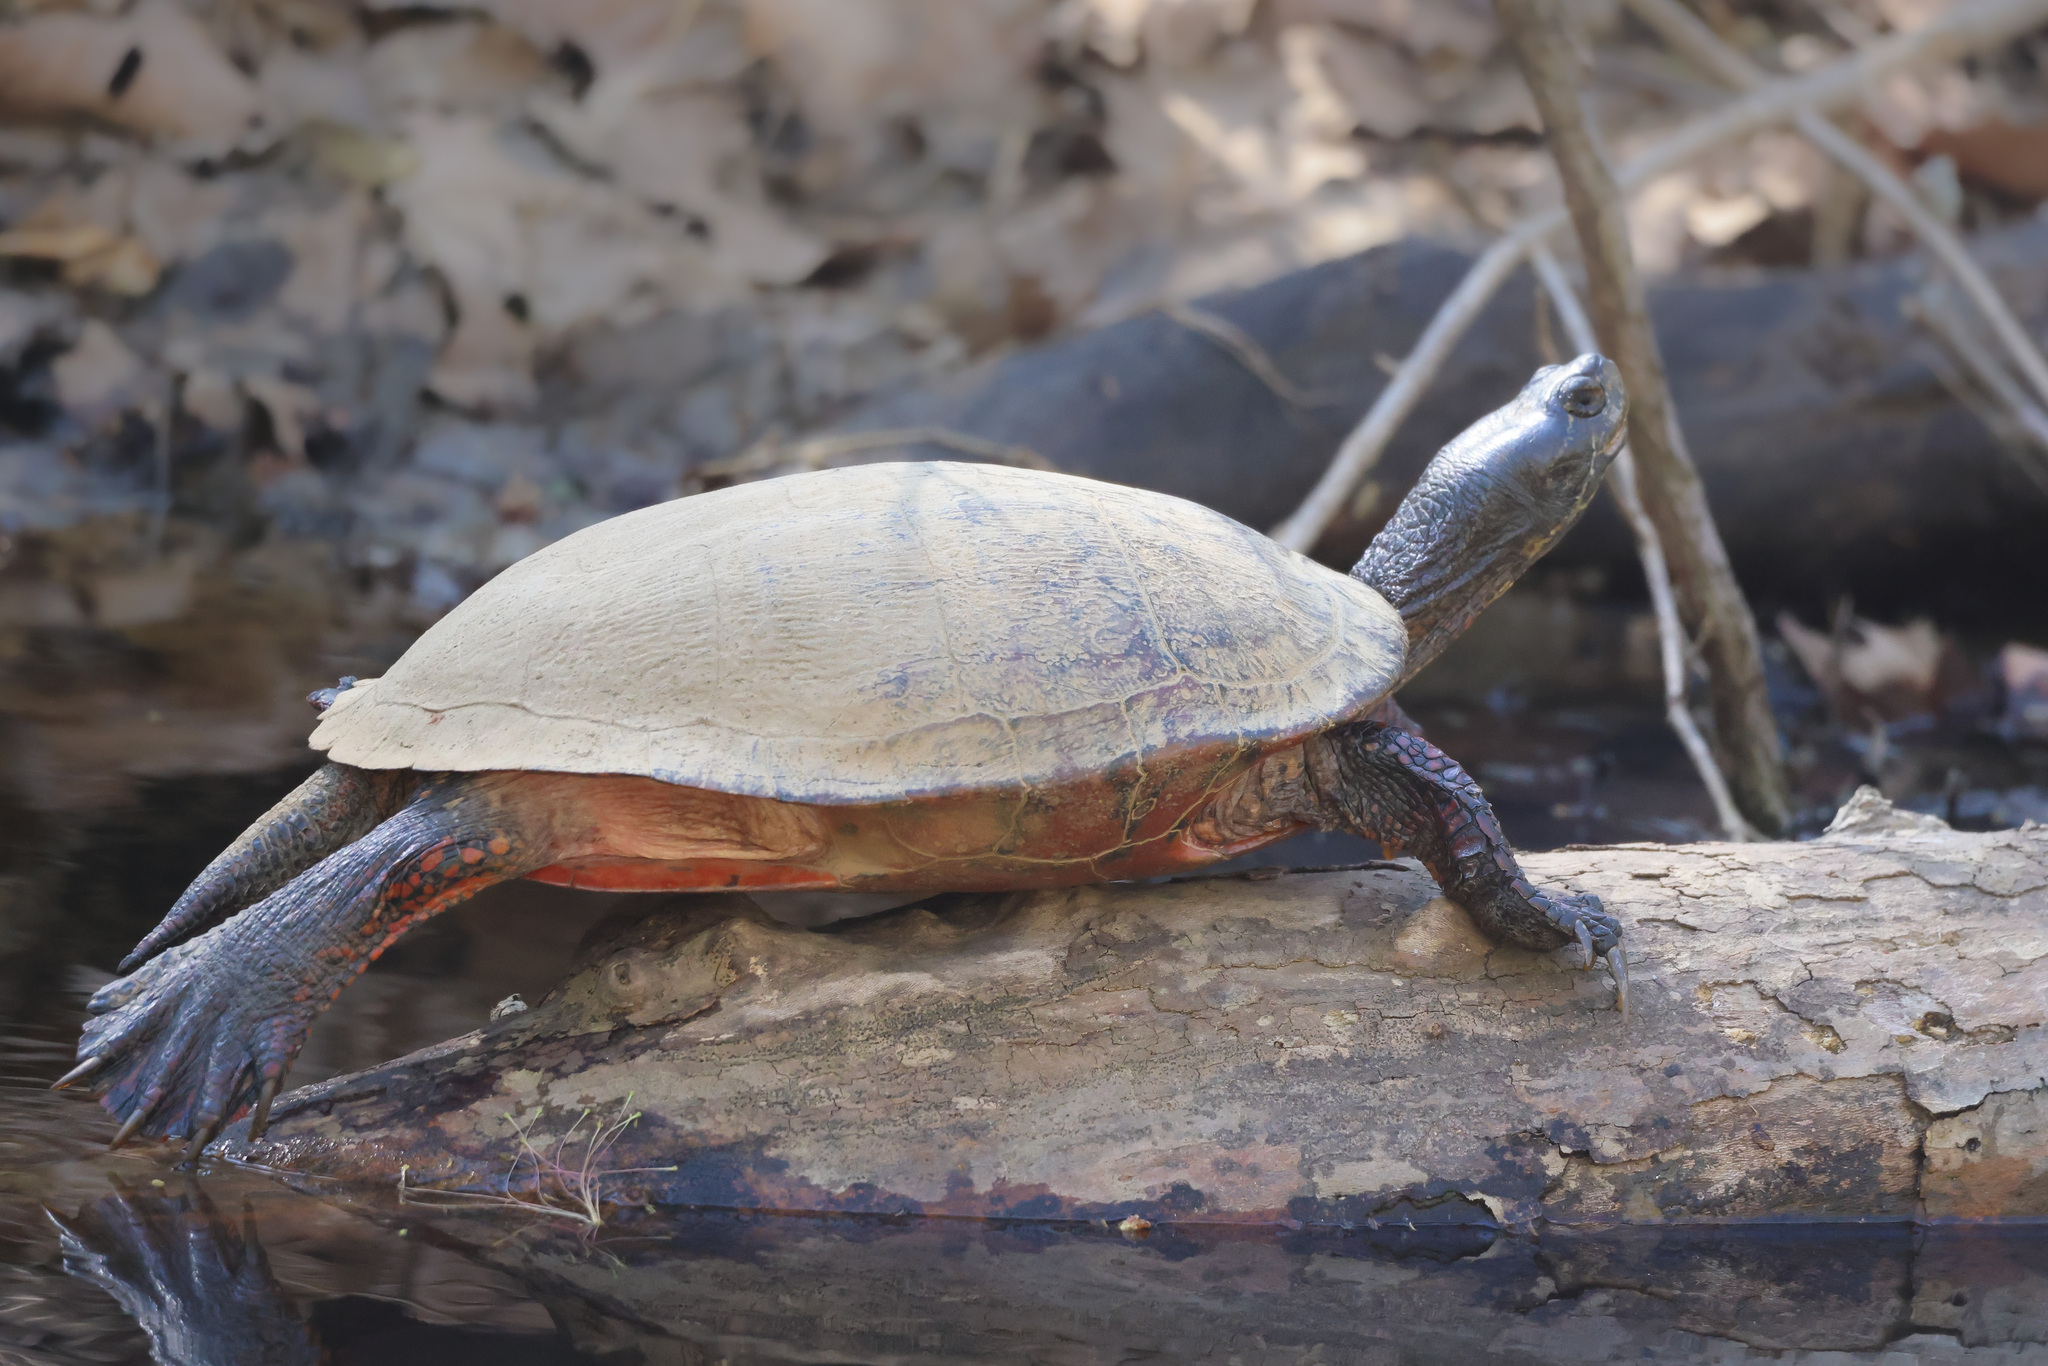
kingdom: Animalia
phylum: Chordata
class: Testudines
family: Emydidae
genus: Pseudemys
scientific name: Pseudemys rubriventris
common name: American red-bellied turtle
